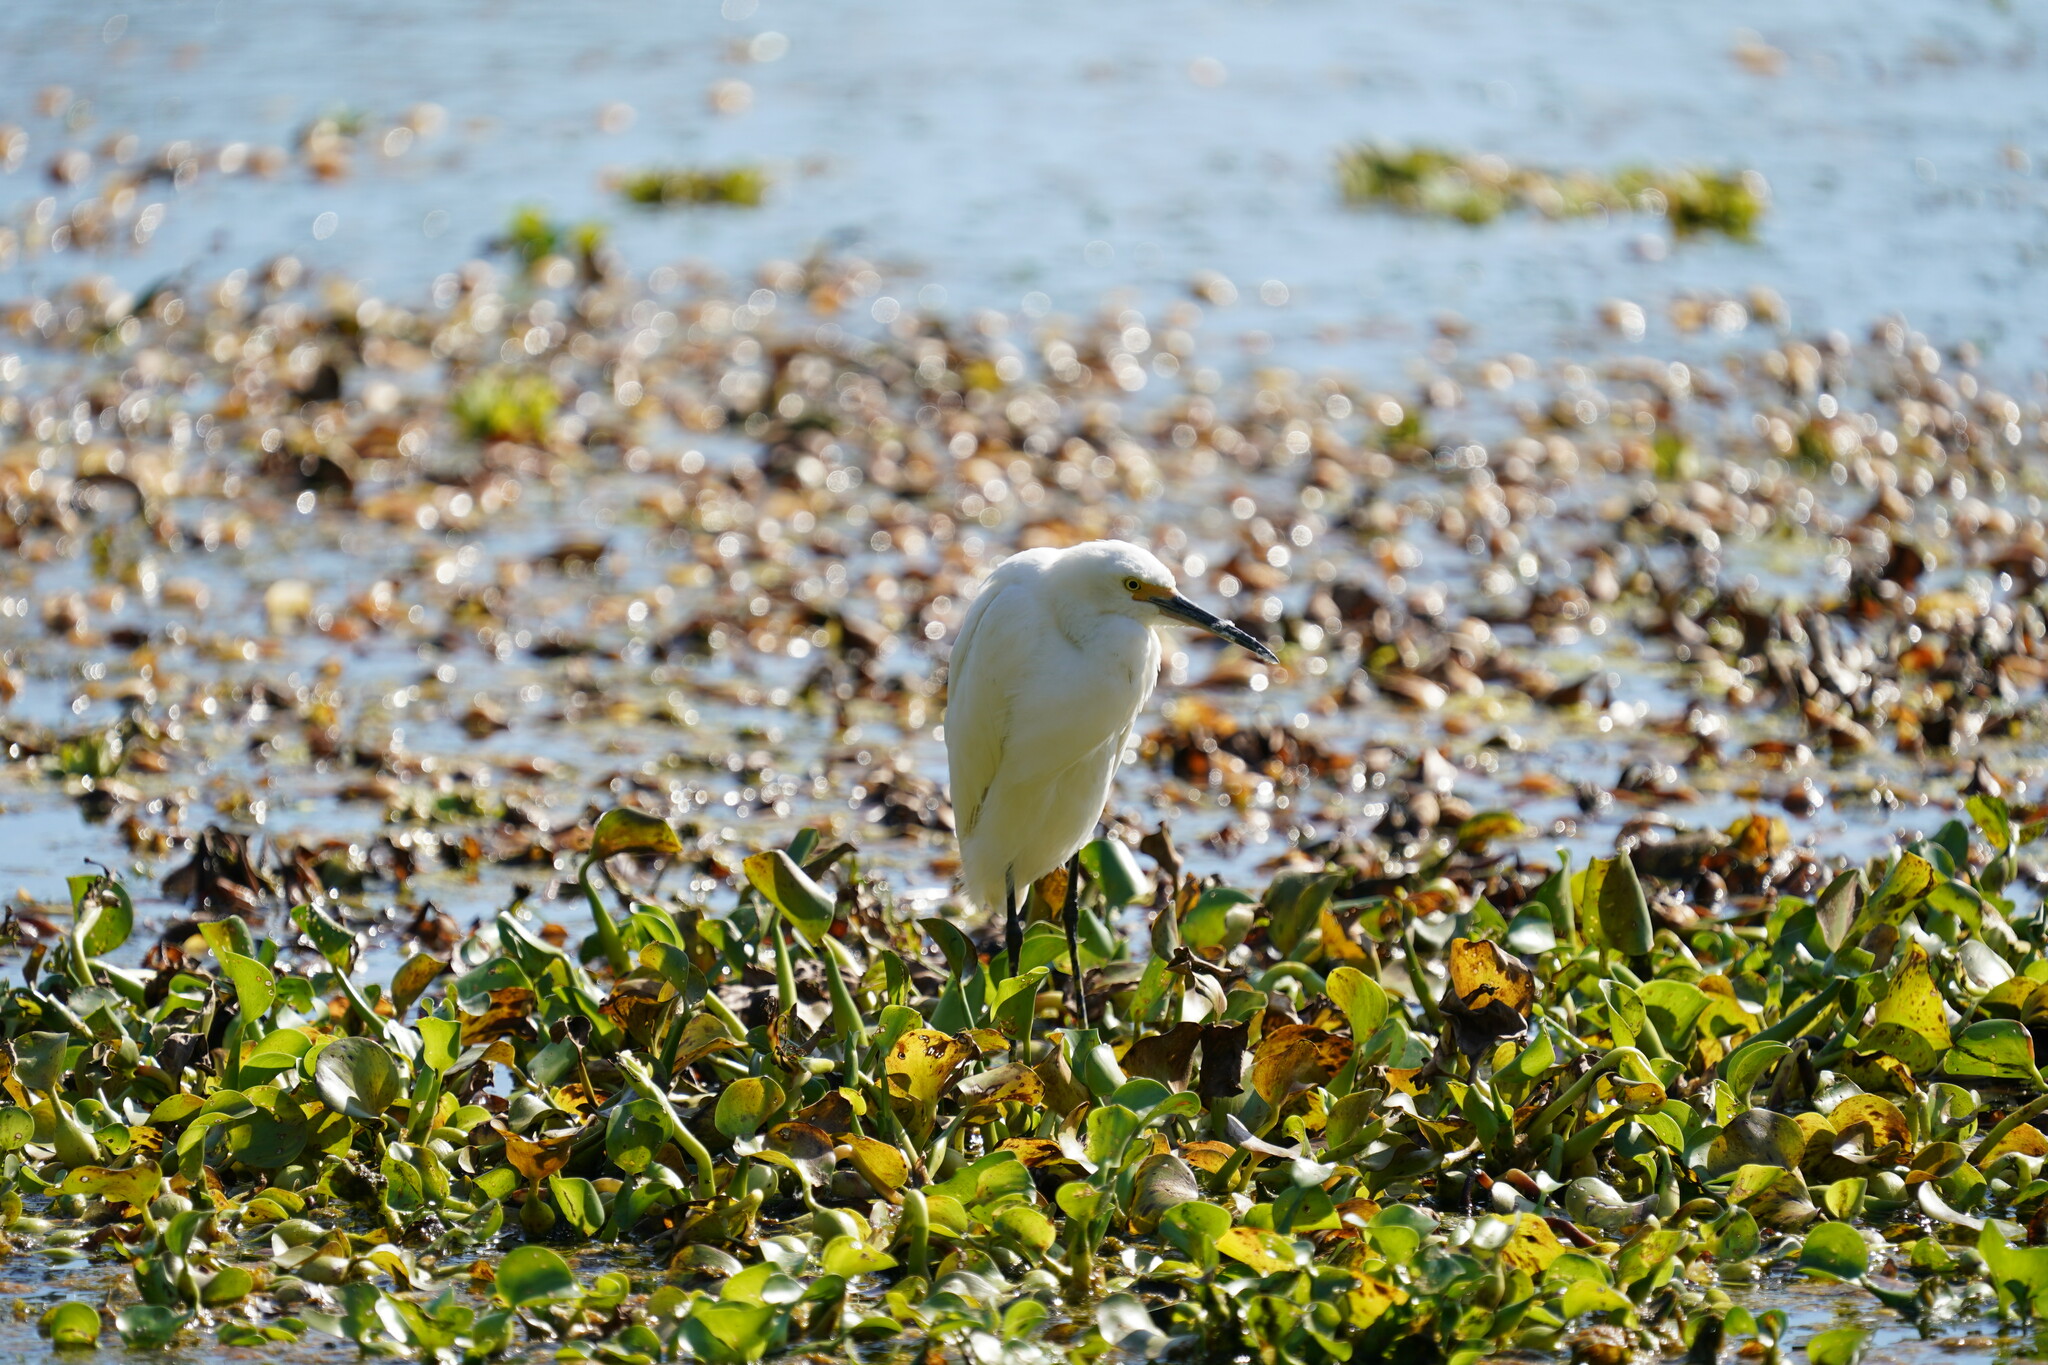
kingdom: Animalia
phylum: Chordata
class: Aves
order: Pelecaniformes
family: Ardeidae
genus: Egretta
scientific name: Egretta thula
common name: Snowy egret
